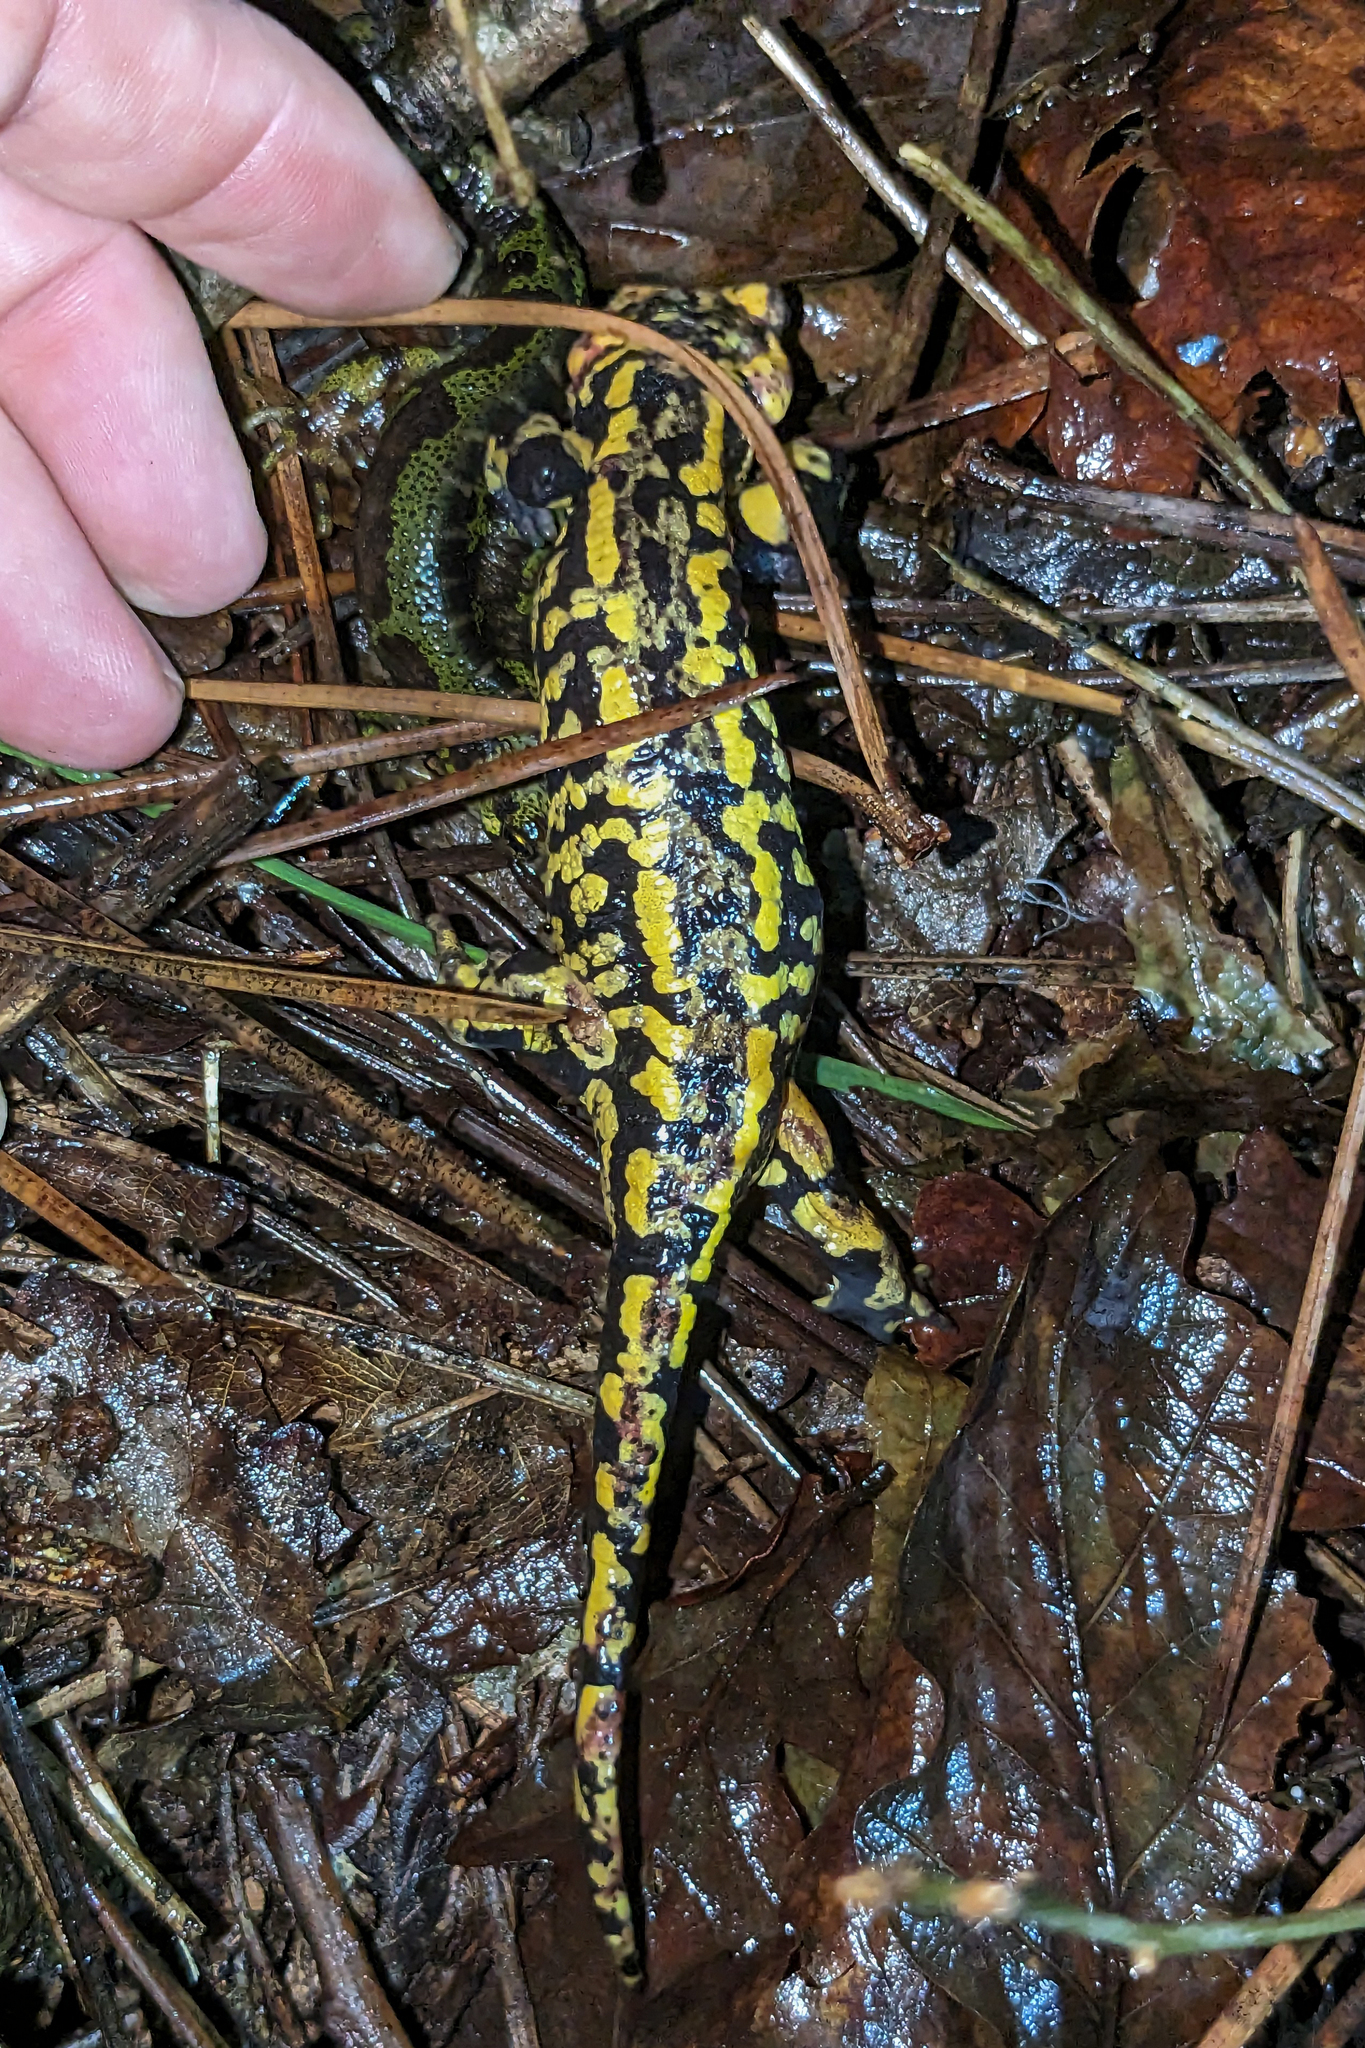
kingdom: Animalia
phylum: Chordata
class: Amphibia
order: Caudata
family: Salamandridae
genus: Salamandra
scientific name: Salamandra salamandra
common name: Fire salamander
